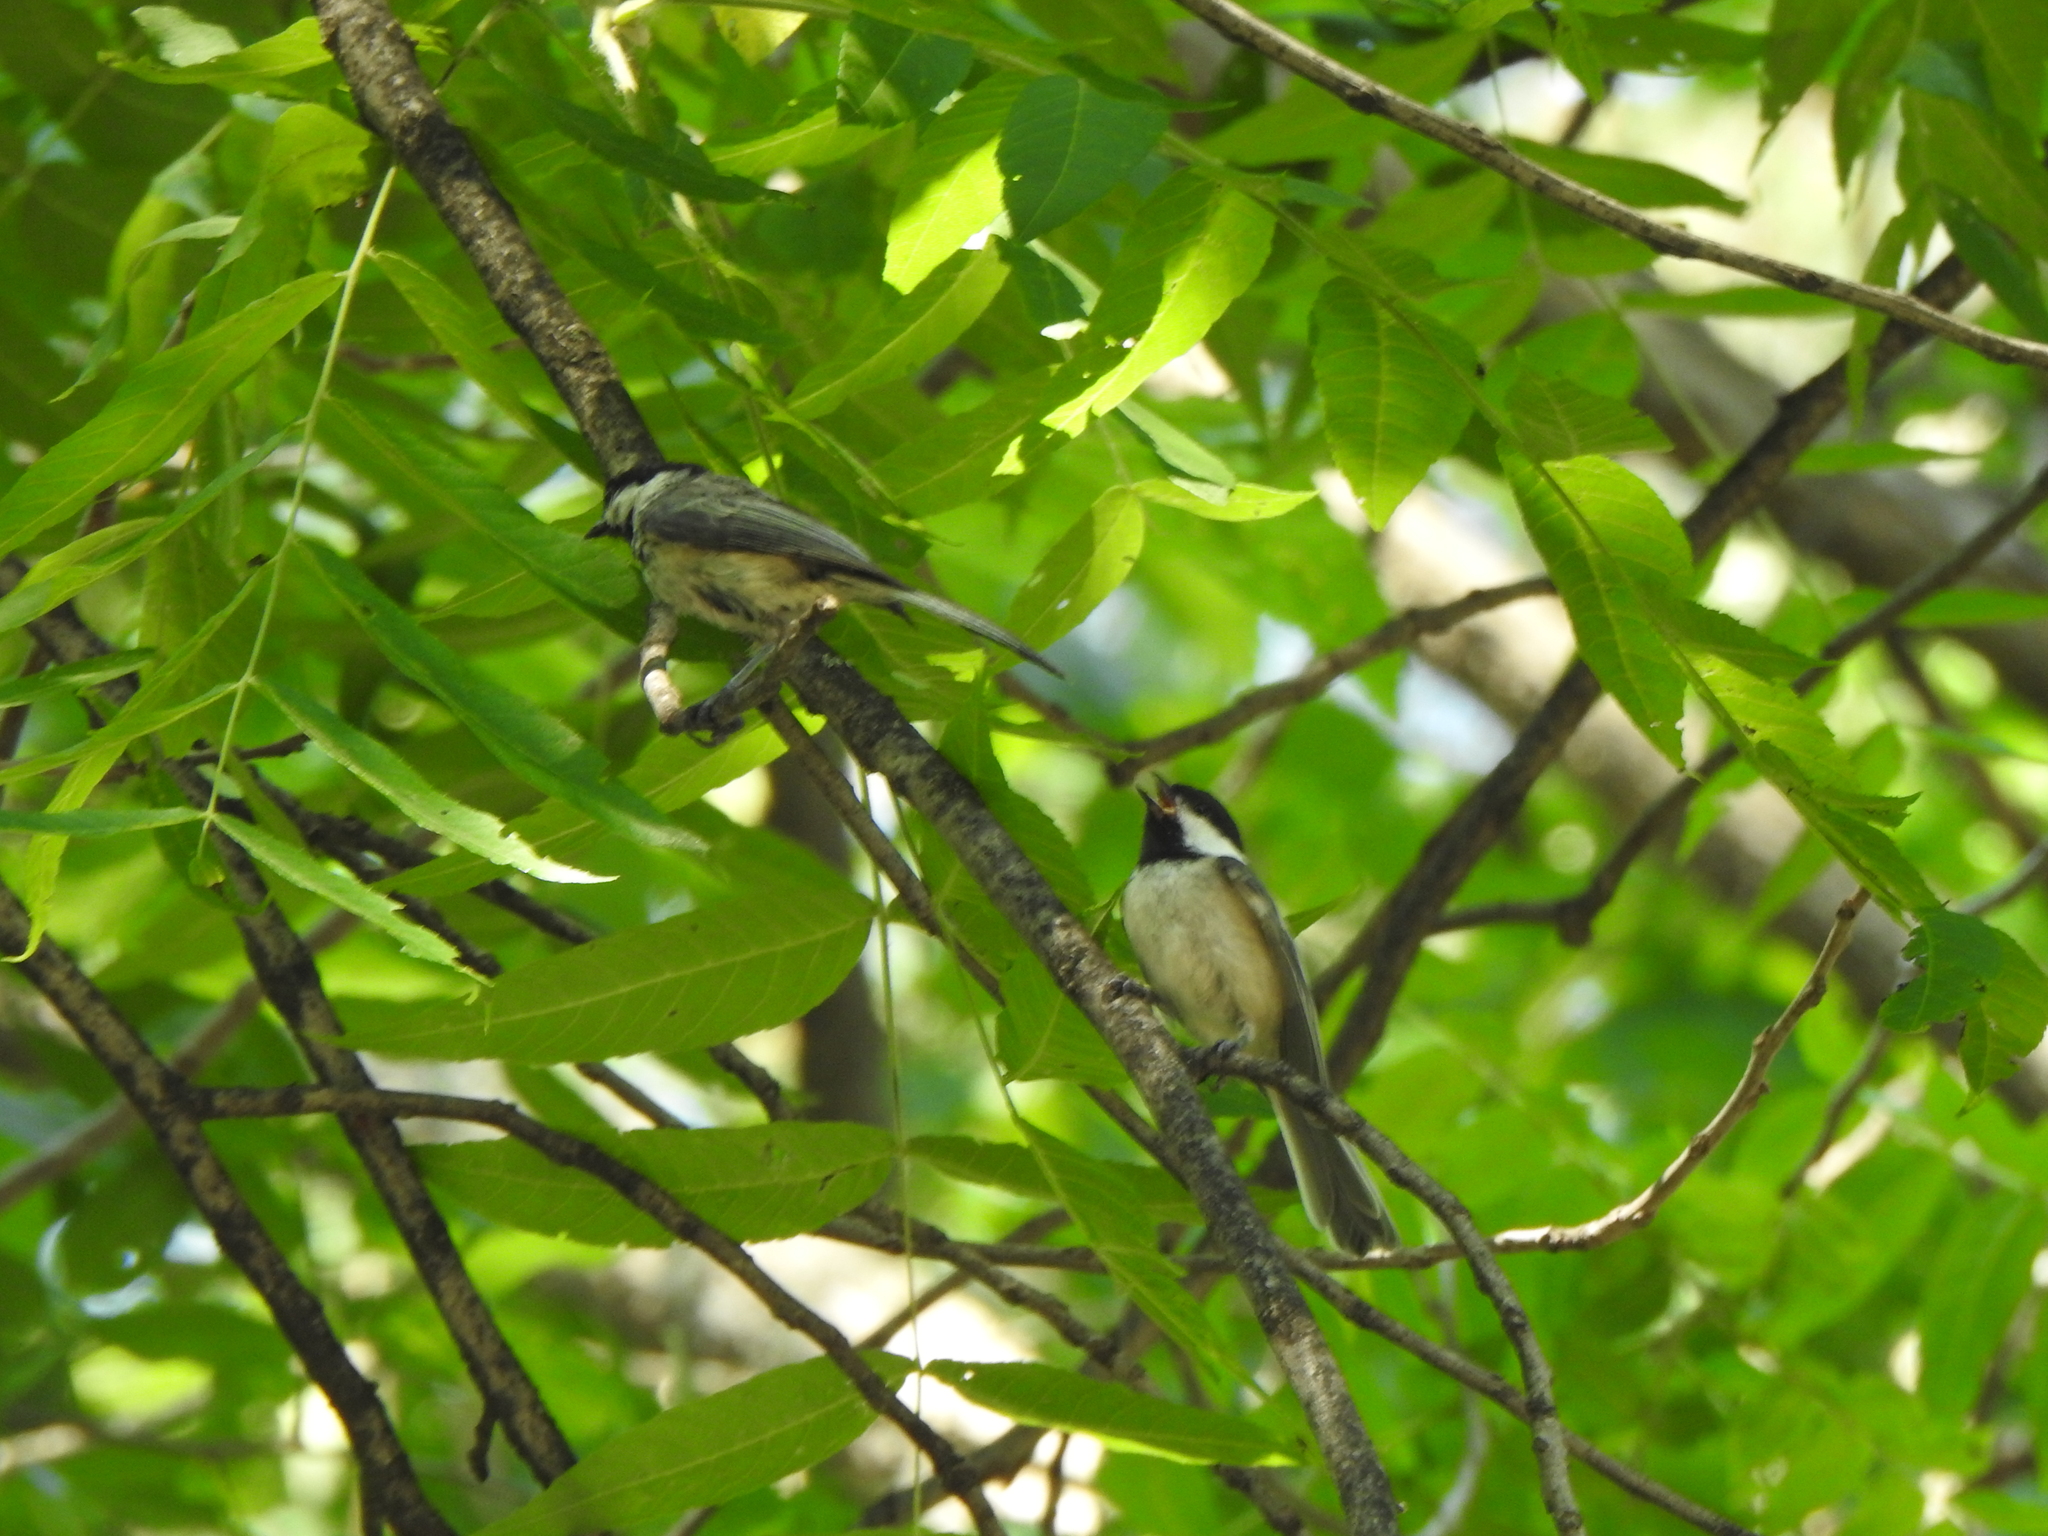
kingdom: Animalia
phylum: Chordata
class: Aves
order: Passeriformes
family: Paridae
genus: Poecile
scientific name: Poecile atricapillus
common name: Black-capped chickadee
